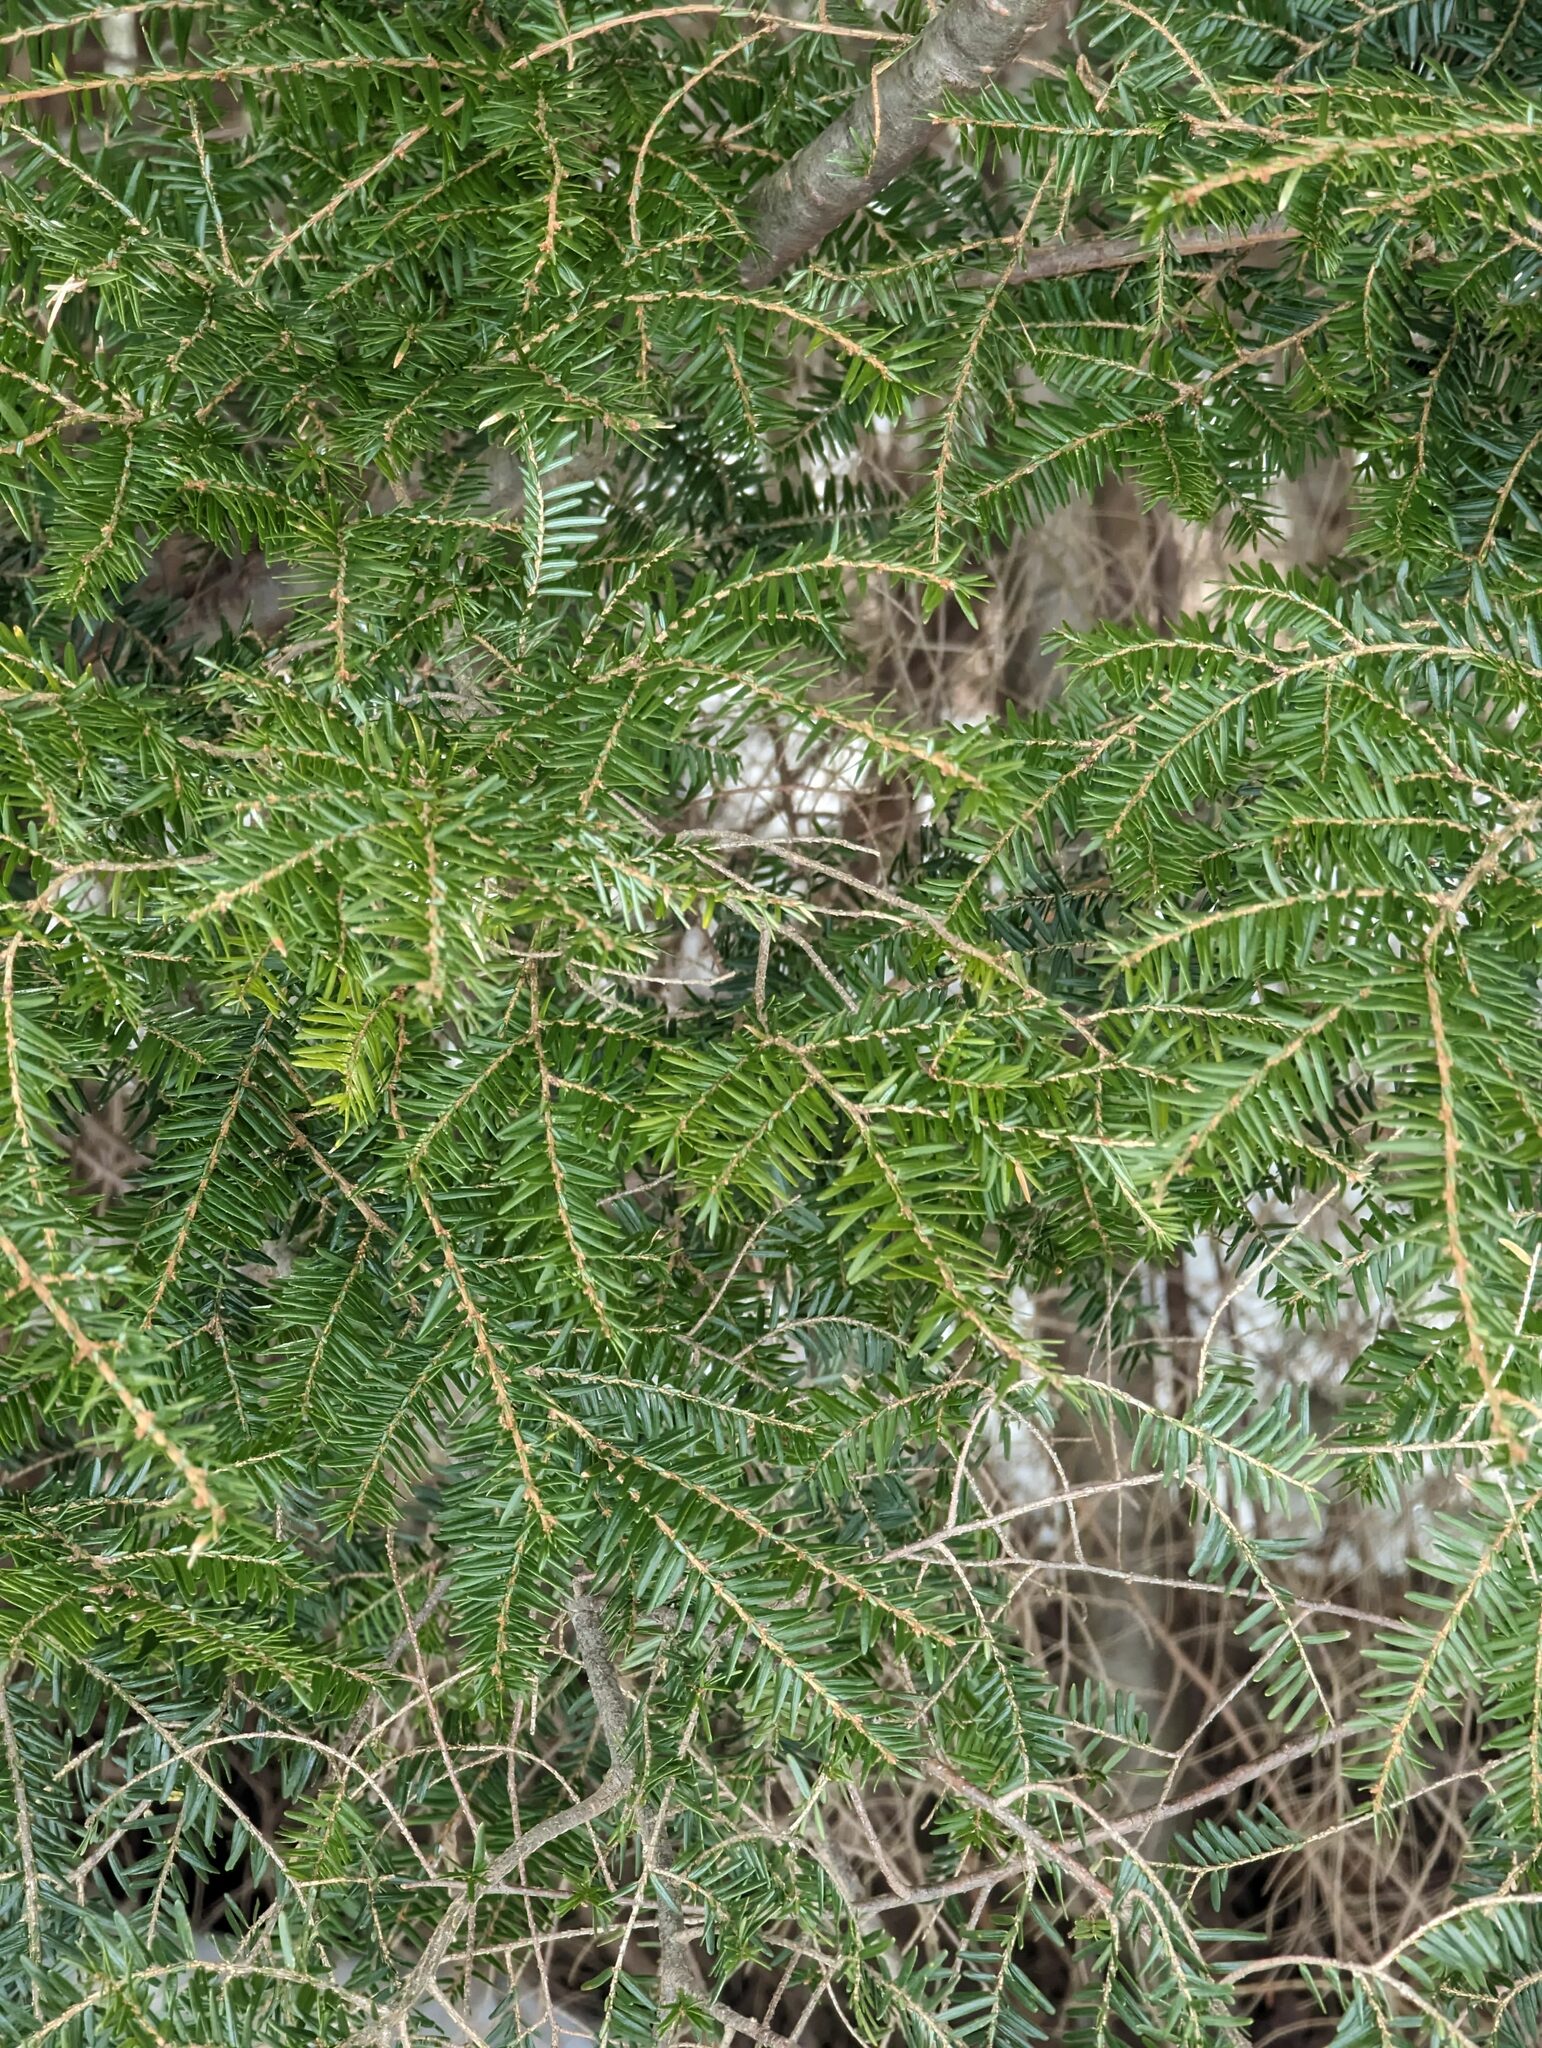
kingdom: Plantae
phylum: Tracheophyta
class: Pinopsida
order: Pinales
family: Pinaceae
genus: Tsuga
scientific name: Tsuga canadensis
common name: Eastern hemlock
